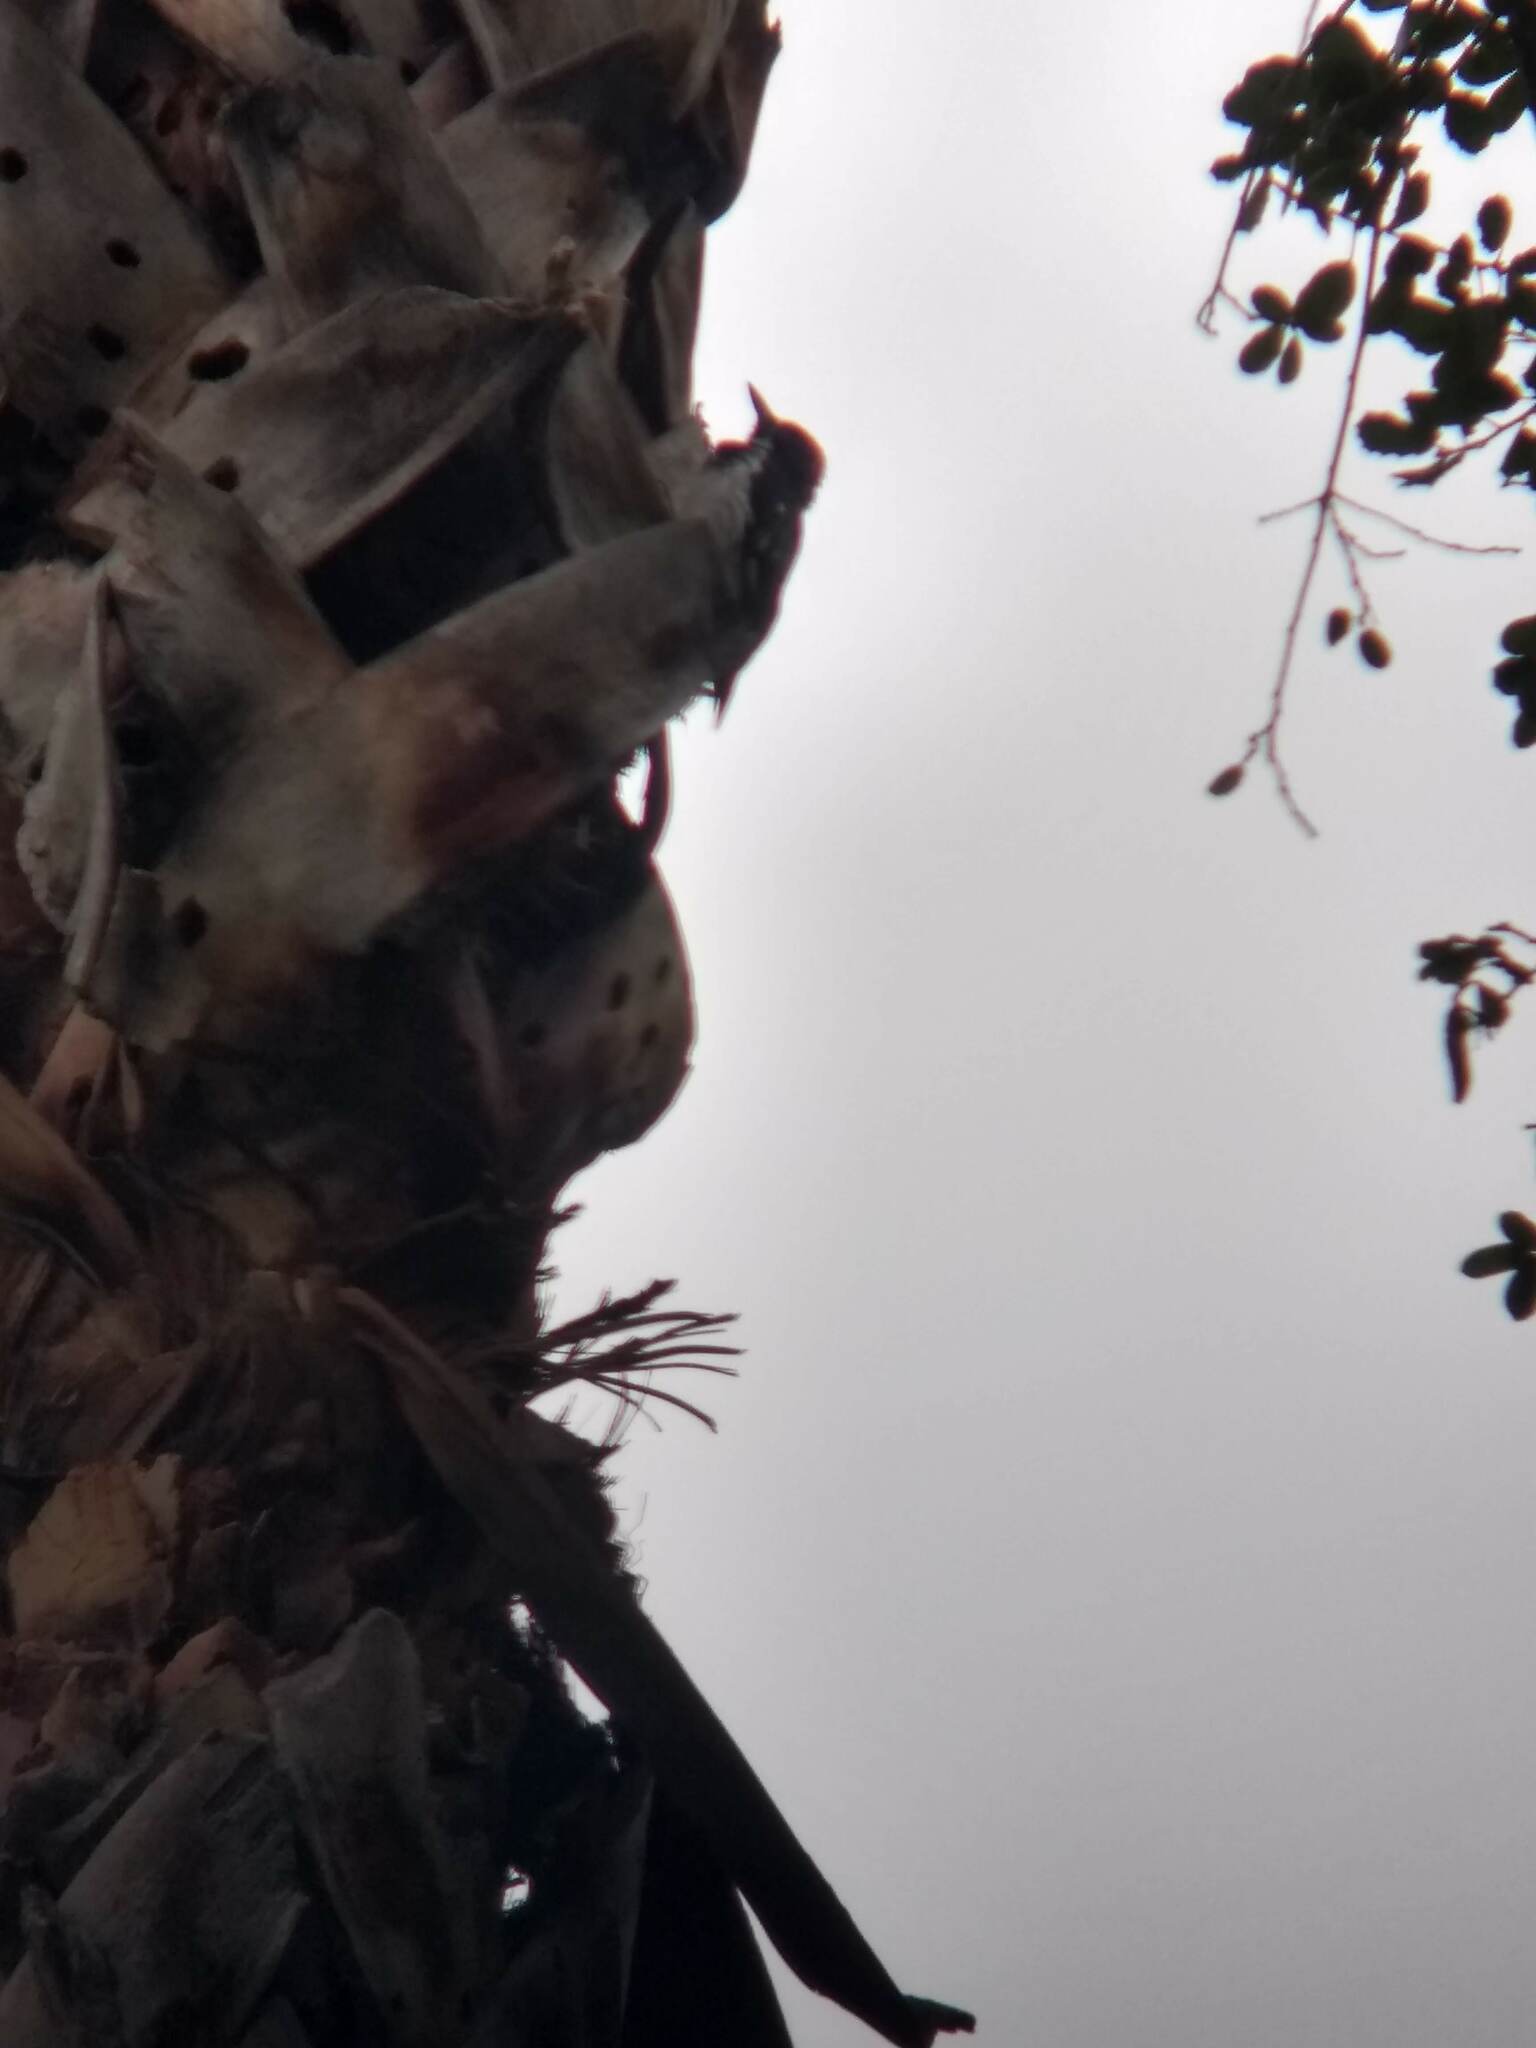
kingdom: Animalia
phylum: Chordata
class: Aves
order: Piciformes
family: Picidae
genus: Melanerpes
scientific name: Melanerpes formicivorus
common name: Acorn woodpecker
